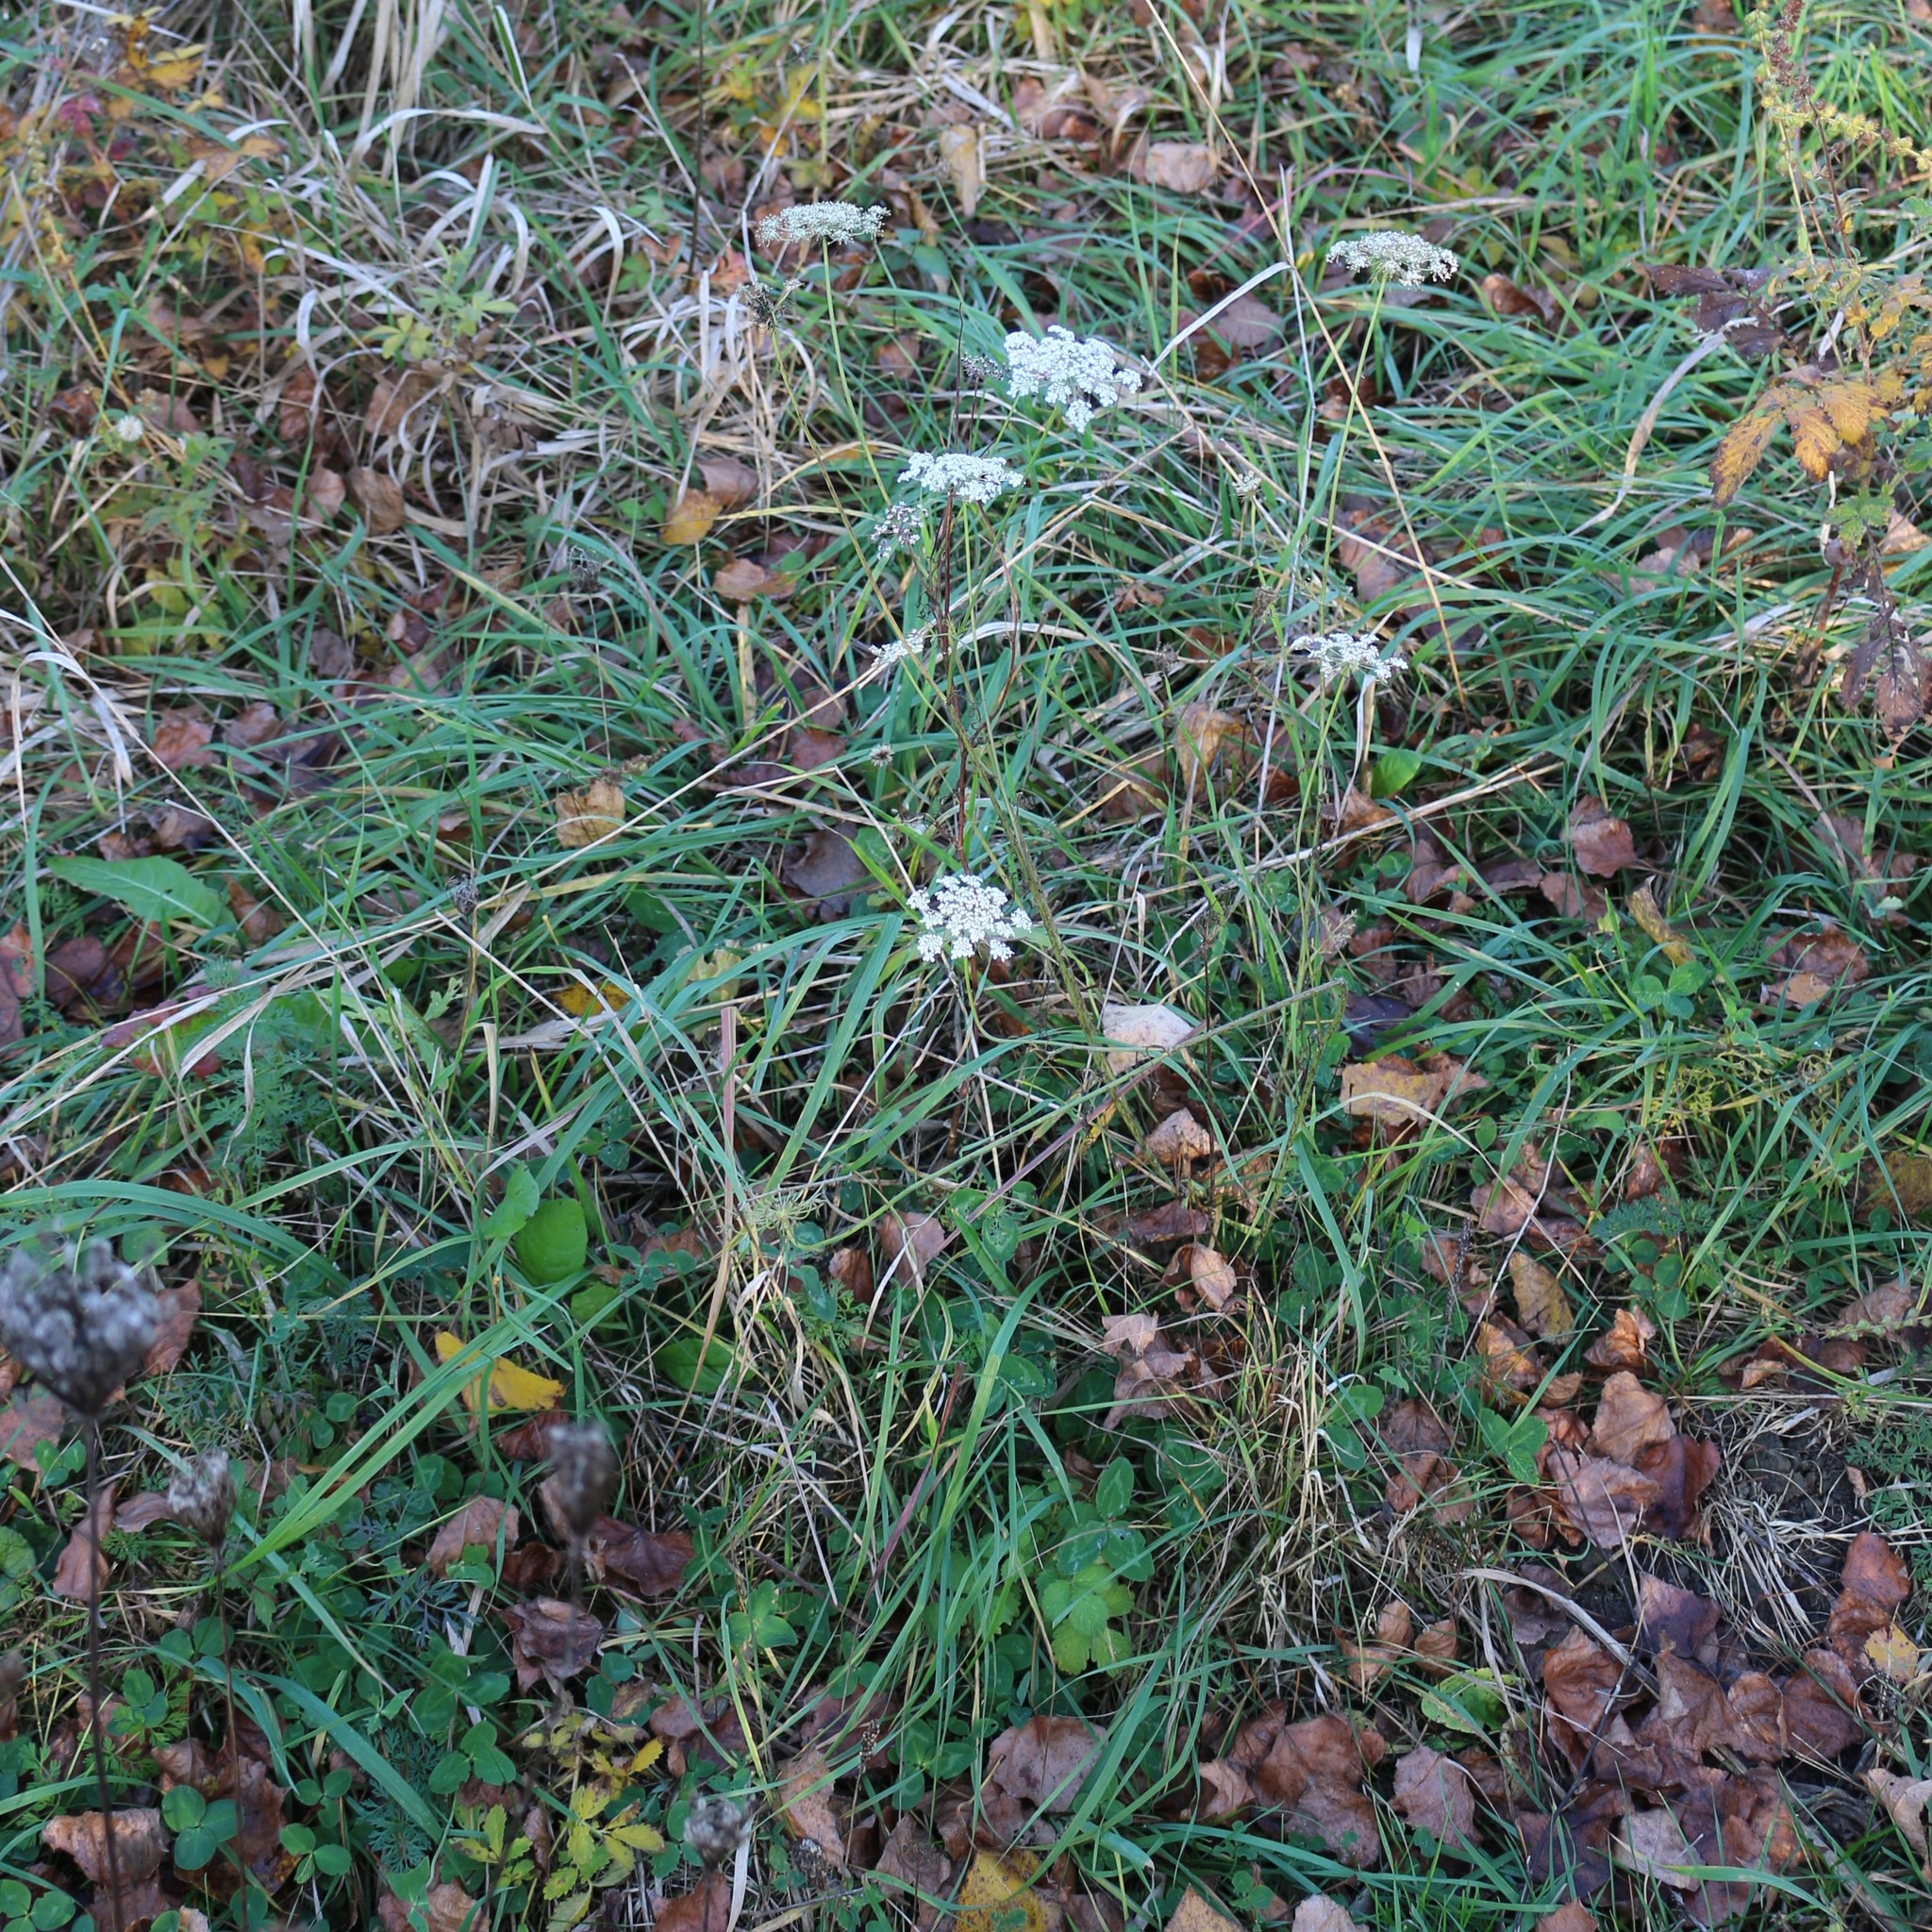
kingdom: Plantae
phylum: Tracheophyta
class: Magnoliopsida
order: Apiales
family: Apiaceae
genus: Daucus
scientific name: Daucus carota
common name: Wild carrot
